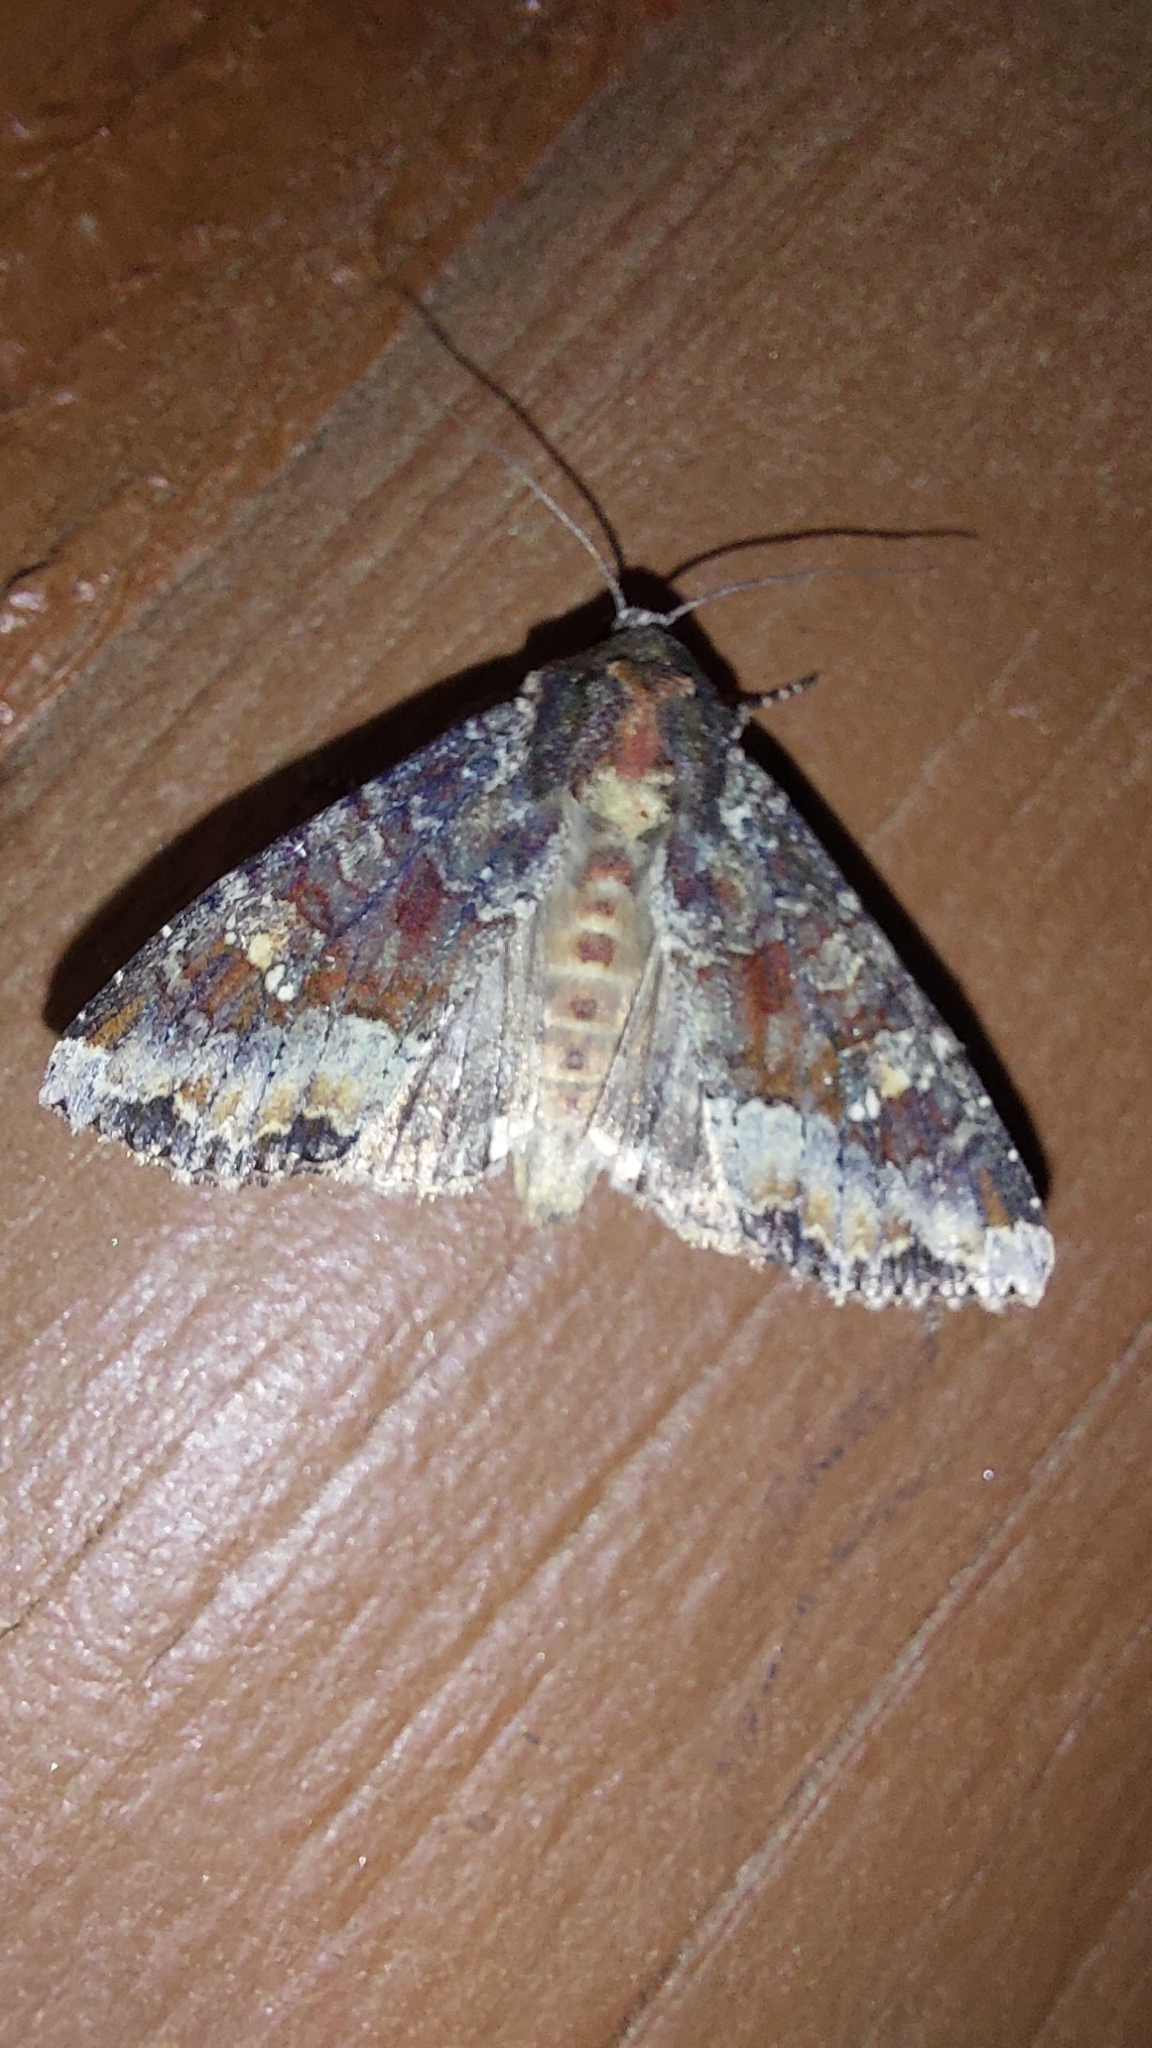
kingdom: Animalia
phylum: Arthropoda
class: Insecta
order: Lepidoptera
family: Noctuidae
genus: Apamea
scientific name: Apamea amputatrix
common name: Yellow-headed cutworm moth
